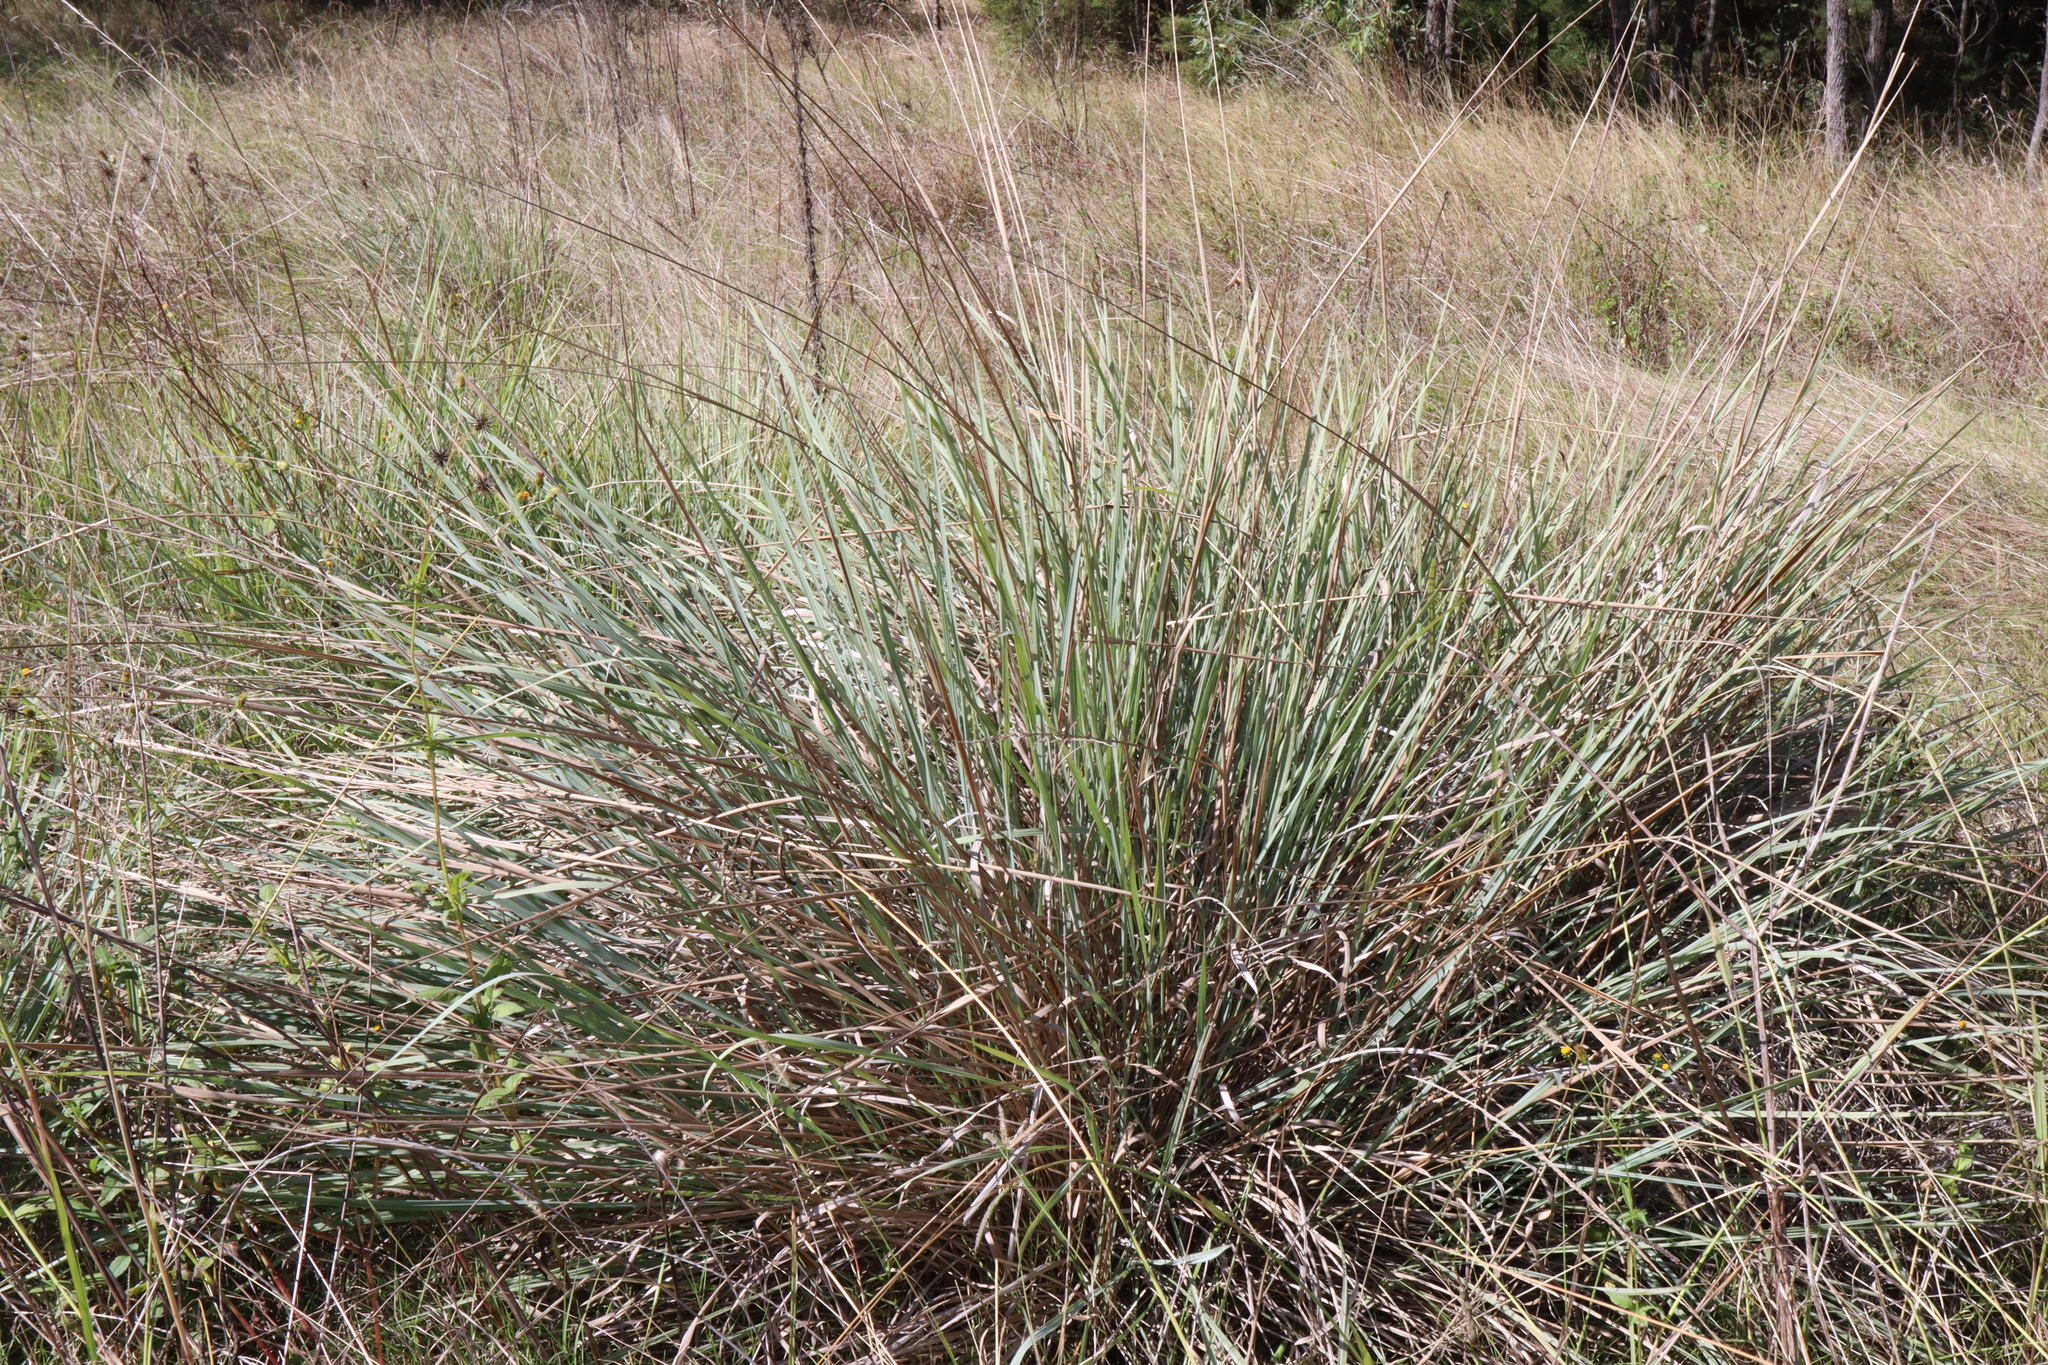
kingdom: Plantae
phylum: Tracheophyta
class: Liliopsida
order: Poales
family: Poaceae
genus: Paspalum
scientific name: Paspalum quadrifarium
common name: Tussock paspalum
